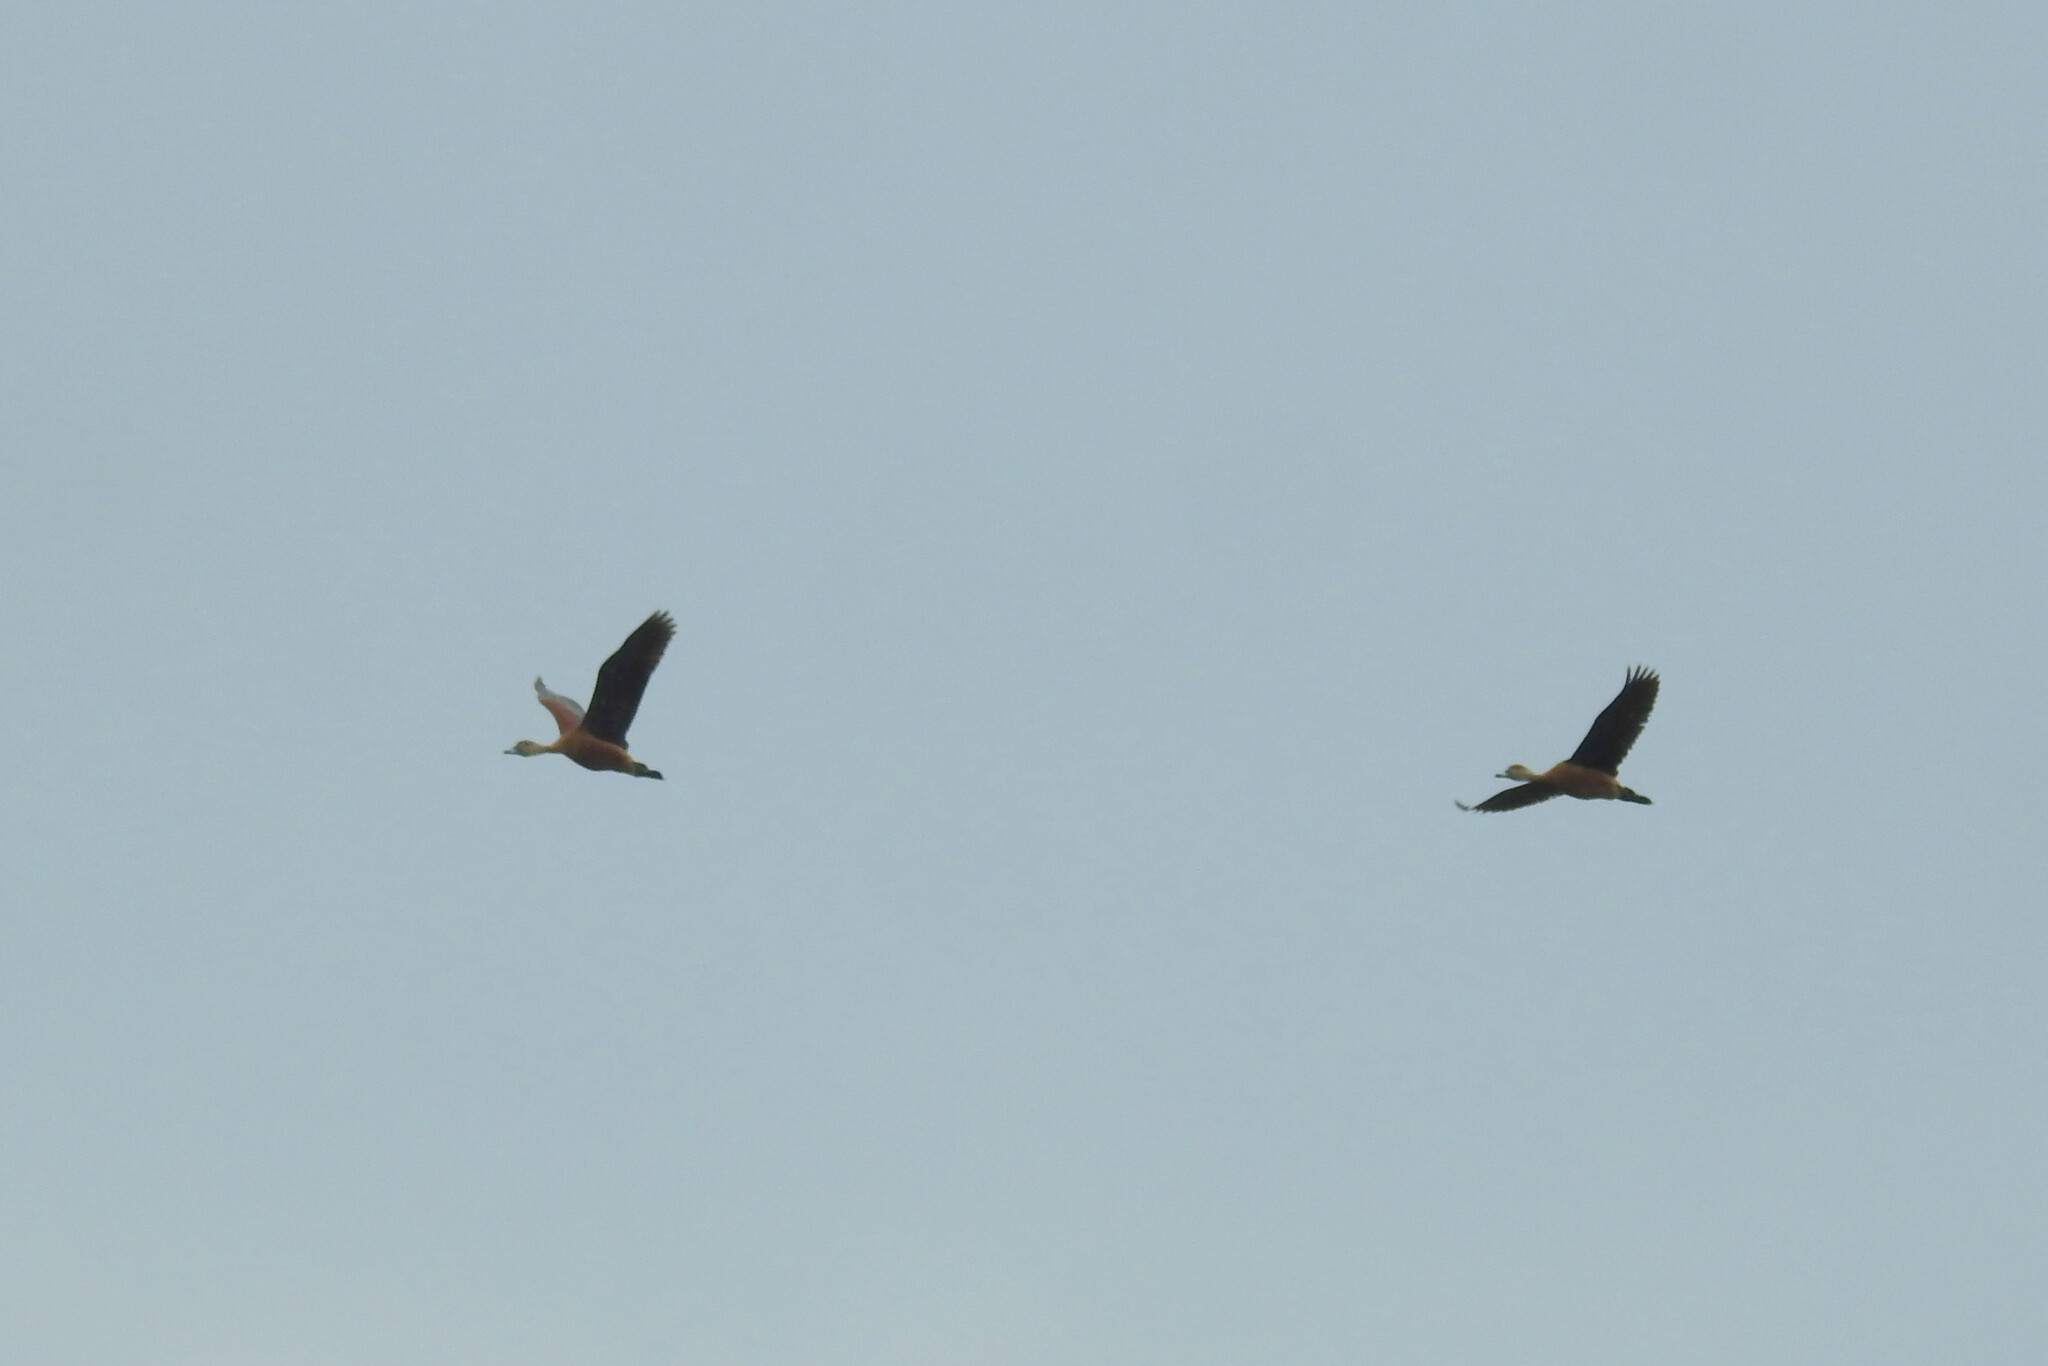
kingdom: Animalia
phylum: Chordata
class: Aves
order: Anseriformes
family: Anatidae
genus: Dendrocygna
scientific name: Dendrocygna javanica
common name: Lesser whistling-duck
